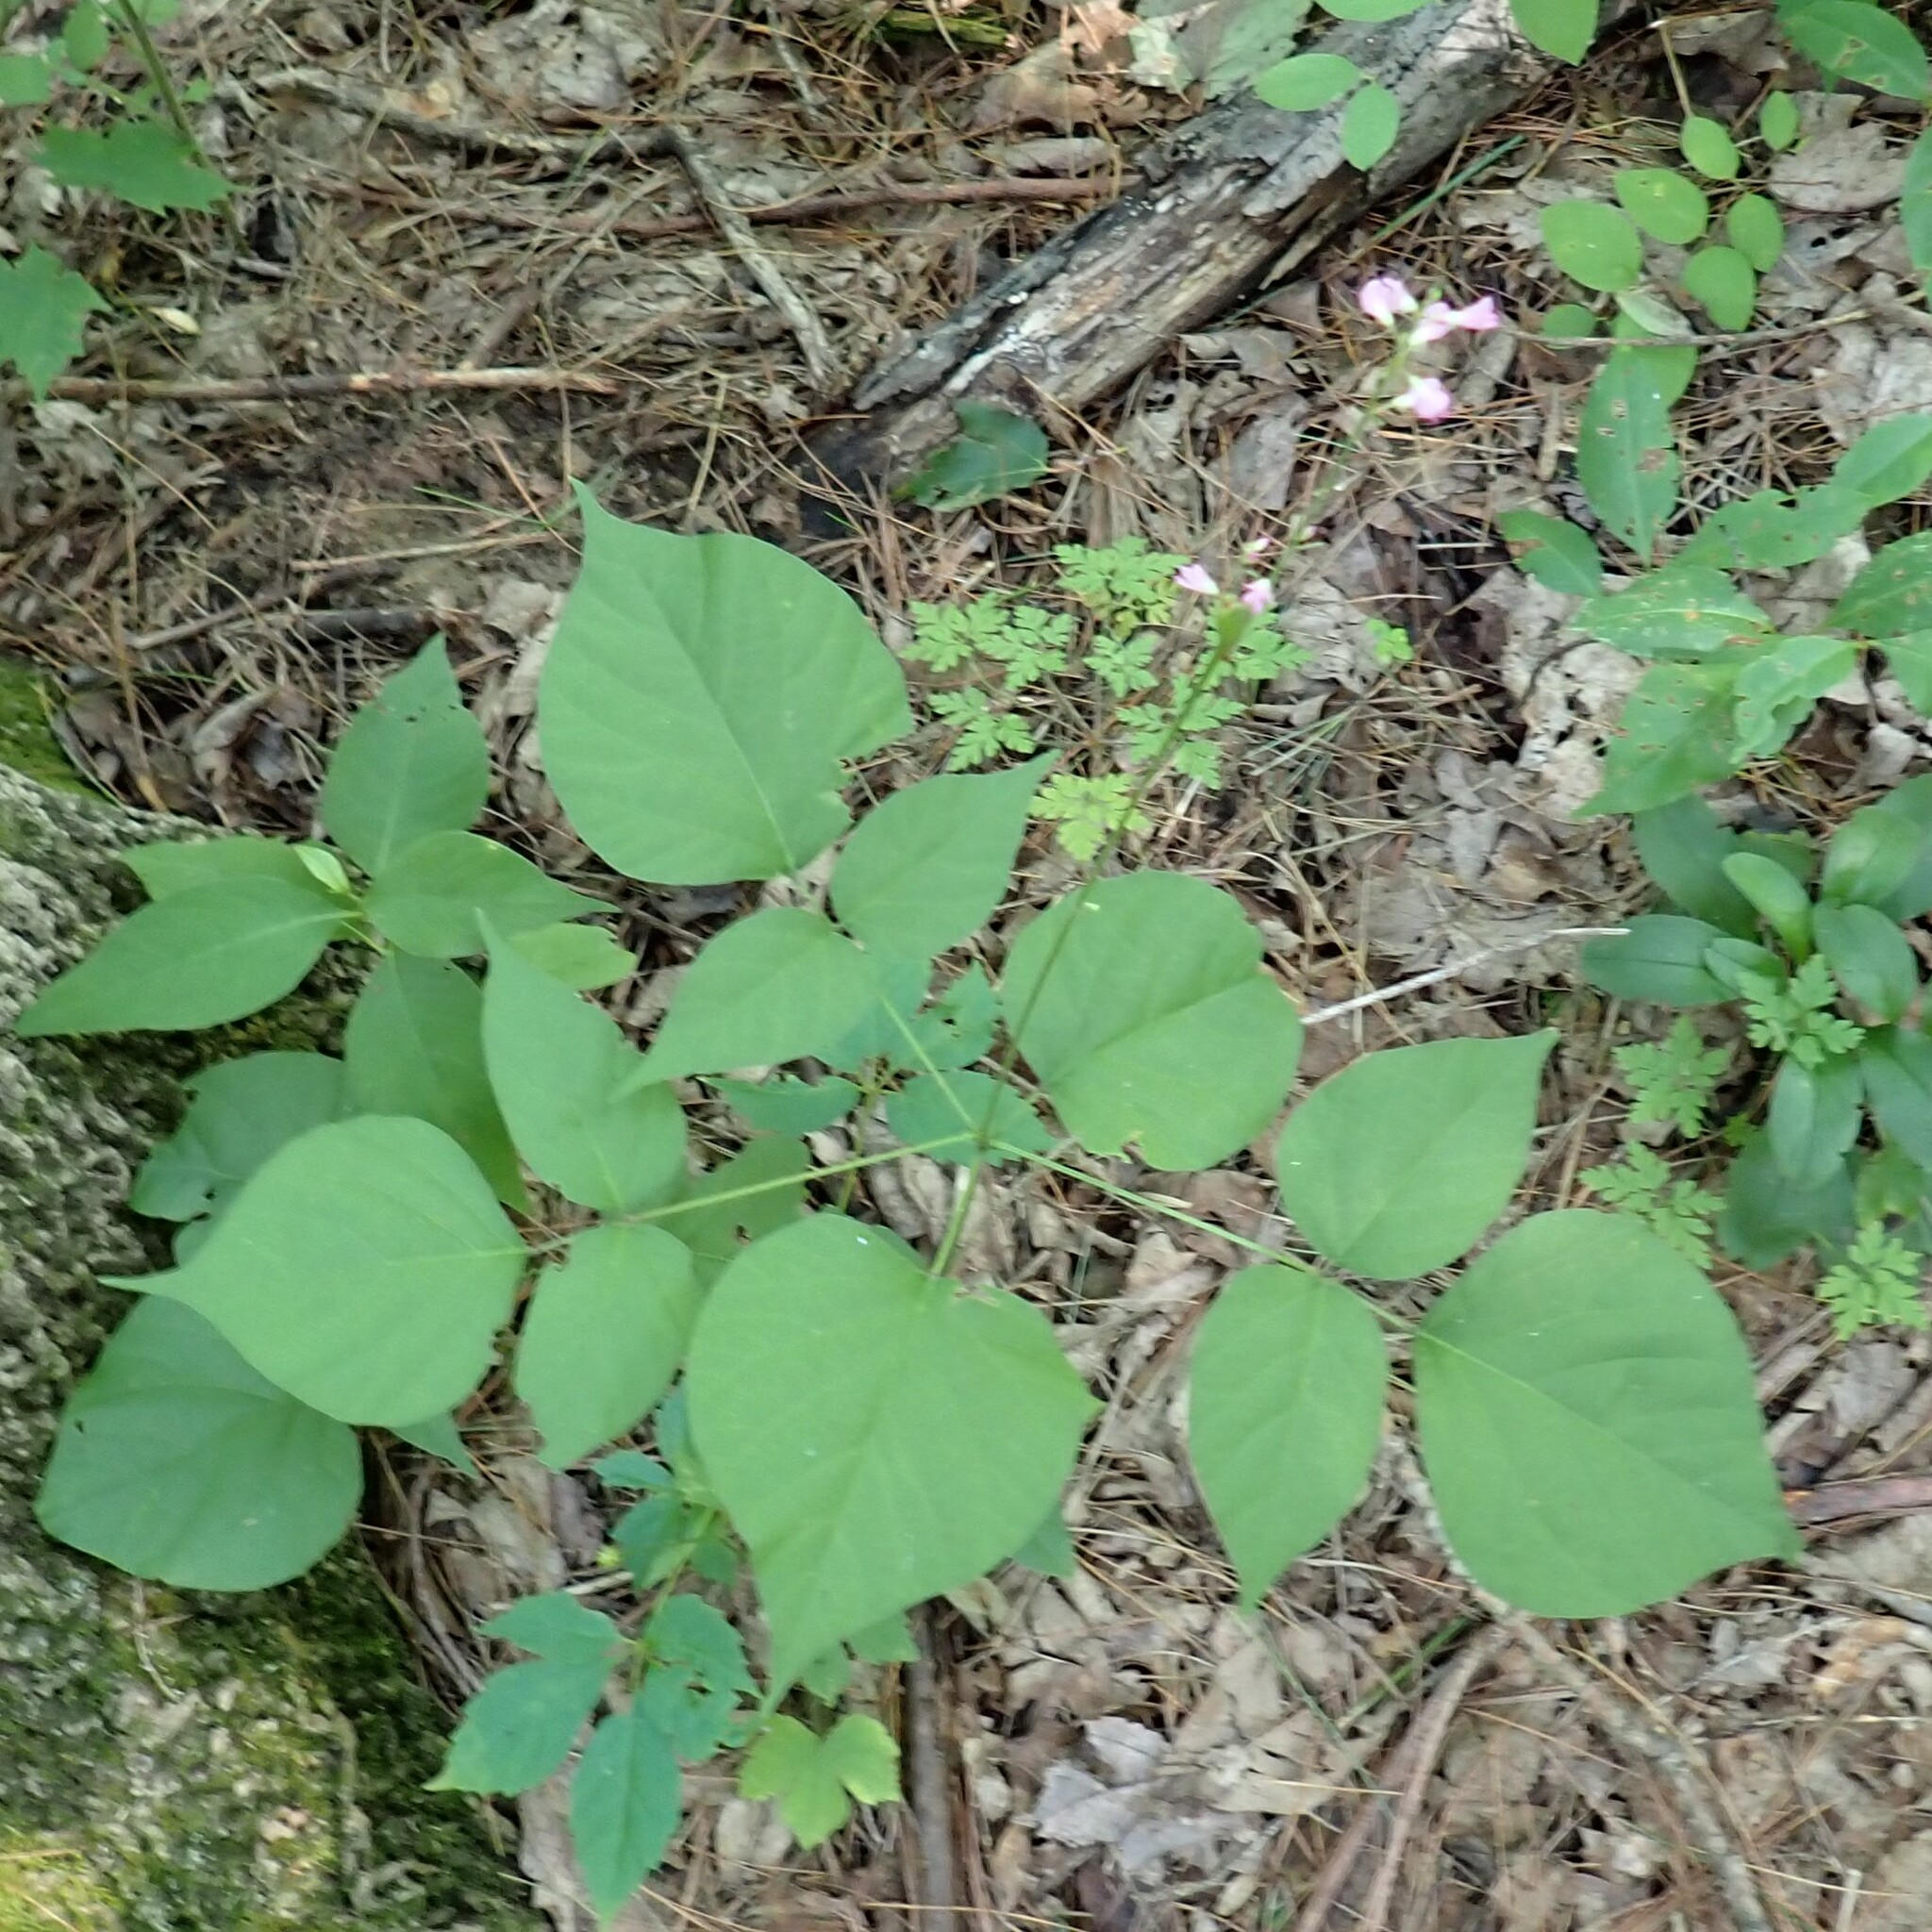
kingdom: Plantae
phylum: Tracheophyta
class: Magnoliopsida
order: Fabales
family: Fabaceae
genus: Hylodesmum
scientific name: Hylodesmum glutinosum
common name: Clustered-leaved tick-trefoil
